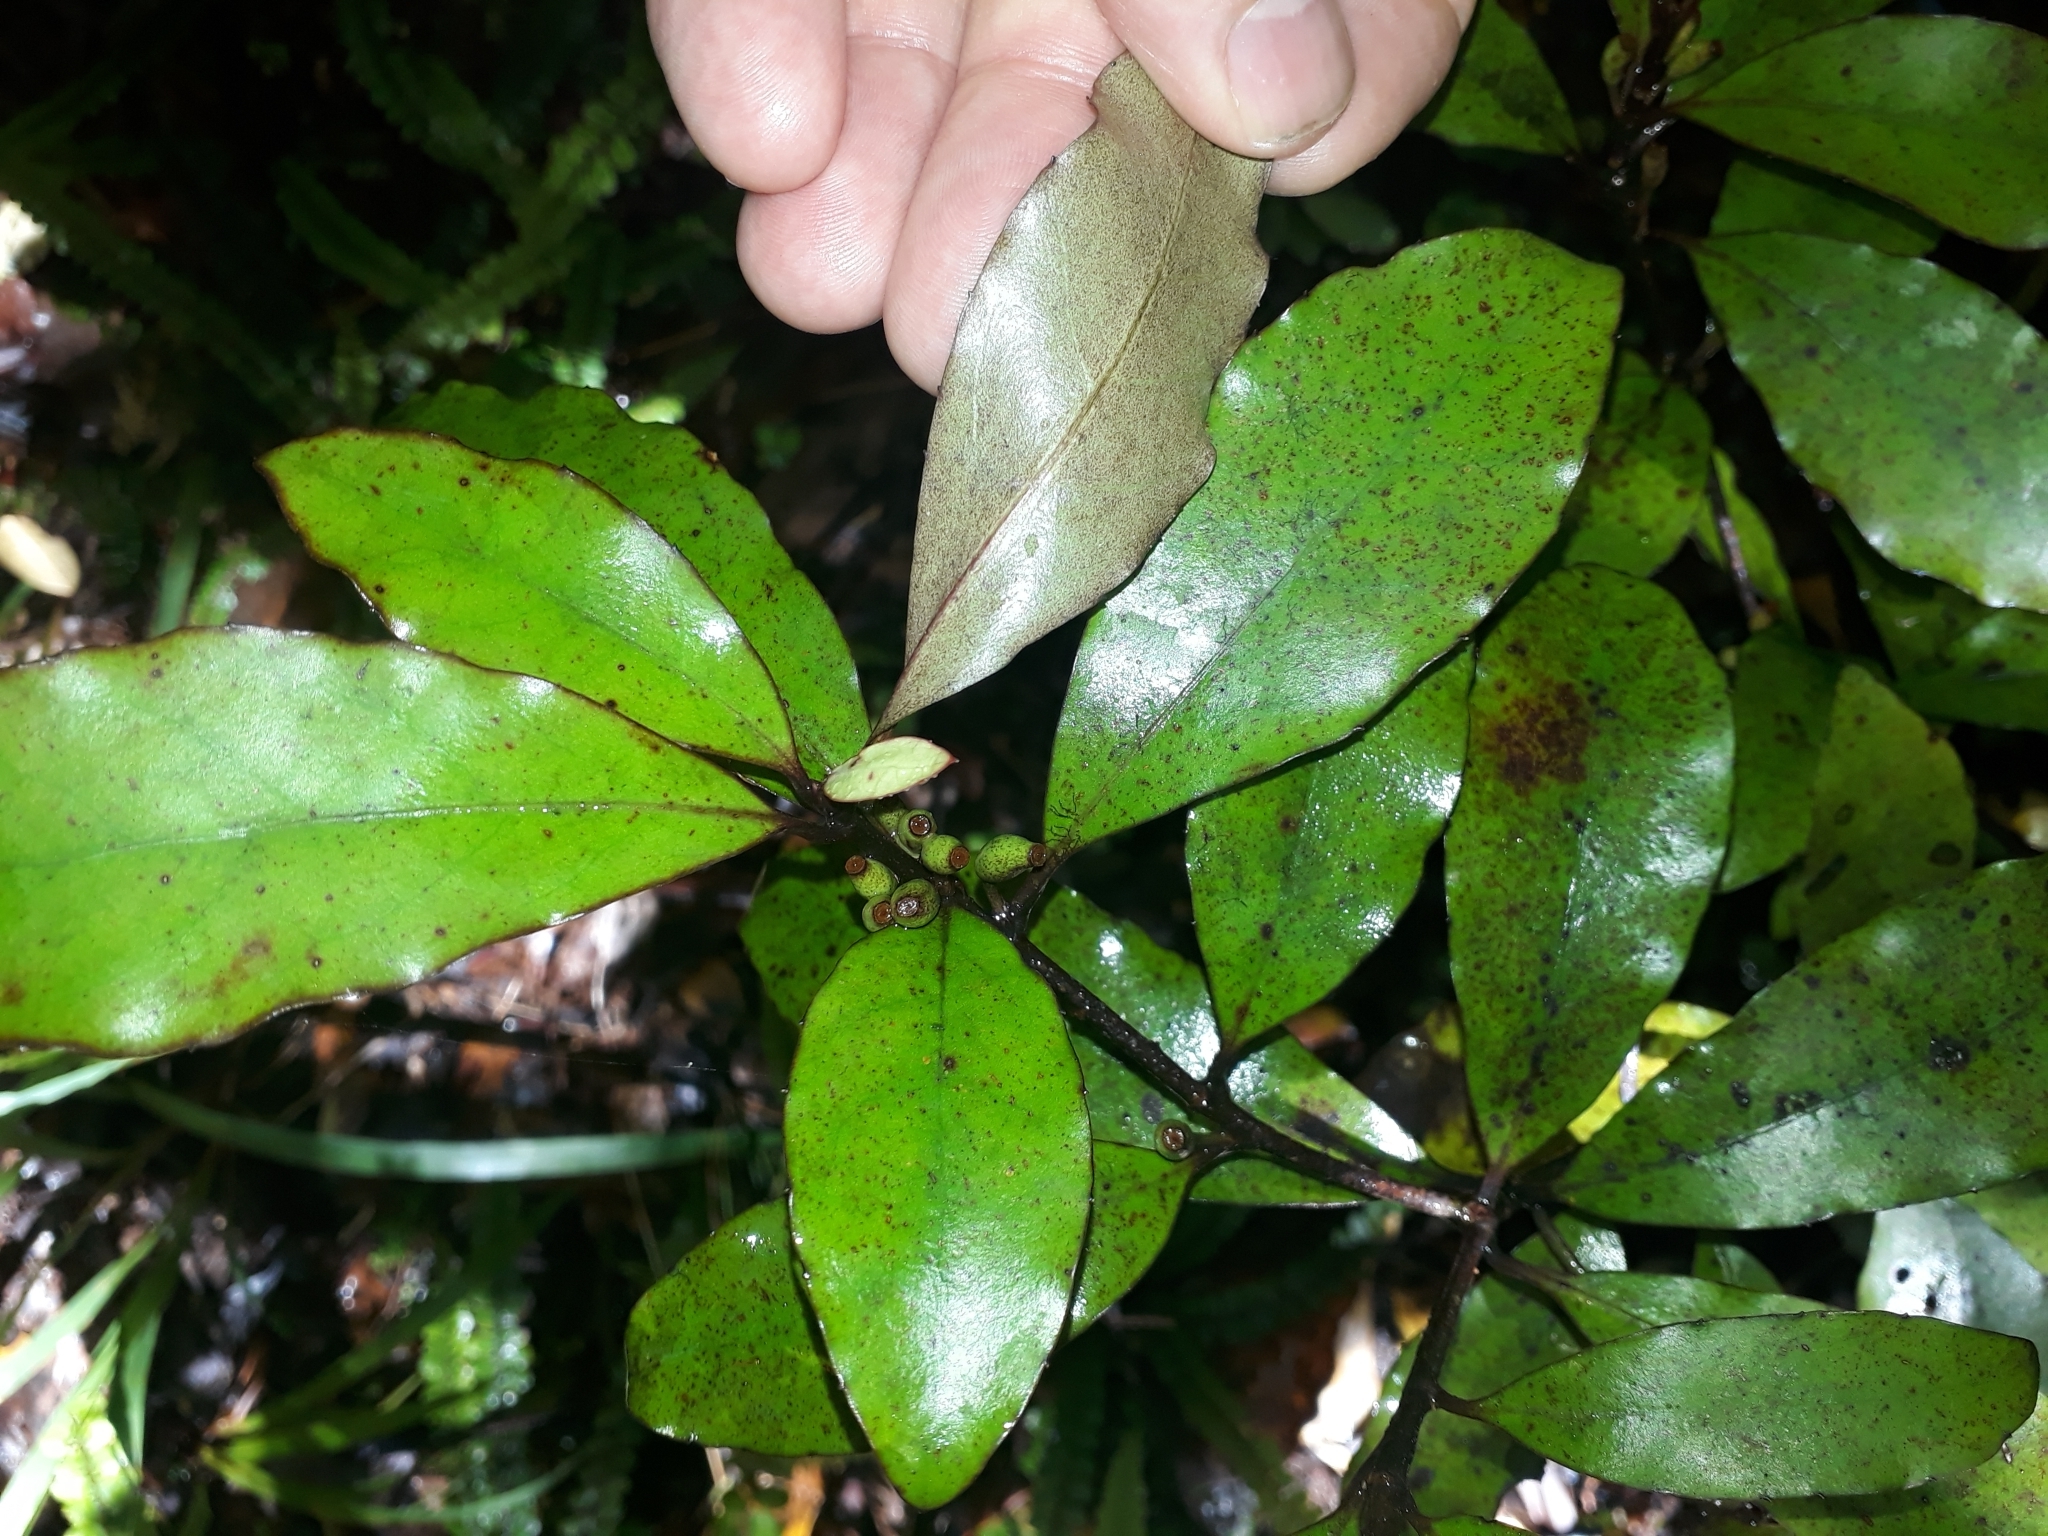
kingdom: Plantae
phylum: Tracheophyta
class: Magnoliopsida
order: Asterales
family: Alseuosmiaceae
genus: Alseuosmia
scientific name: Alseuosmia pusilla
